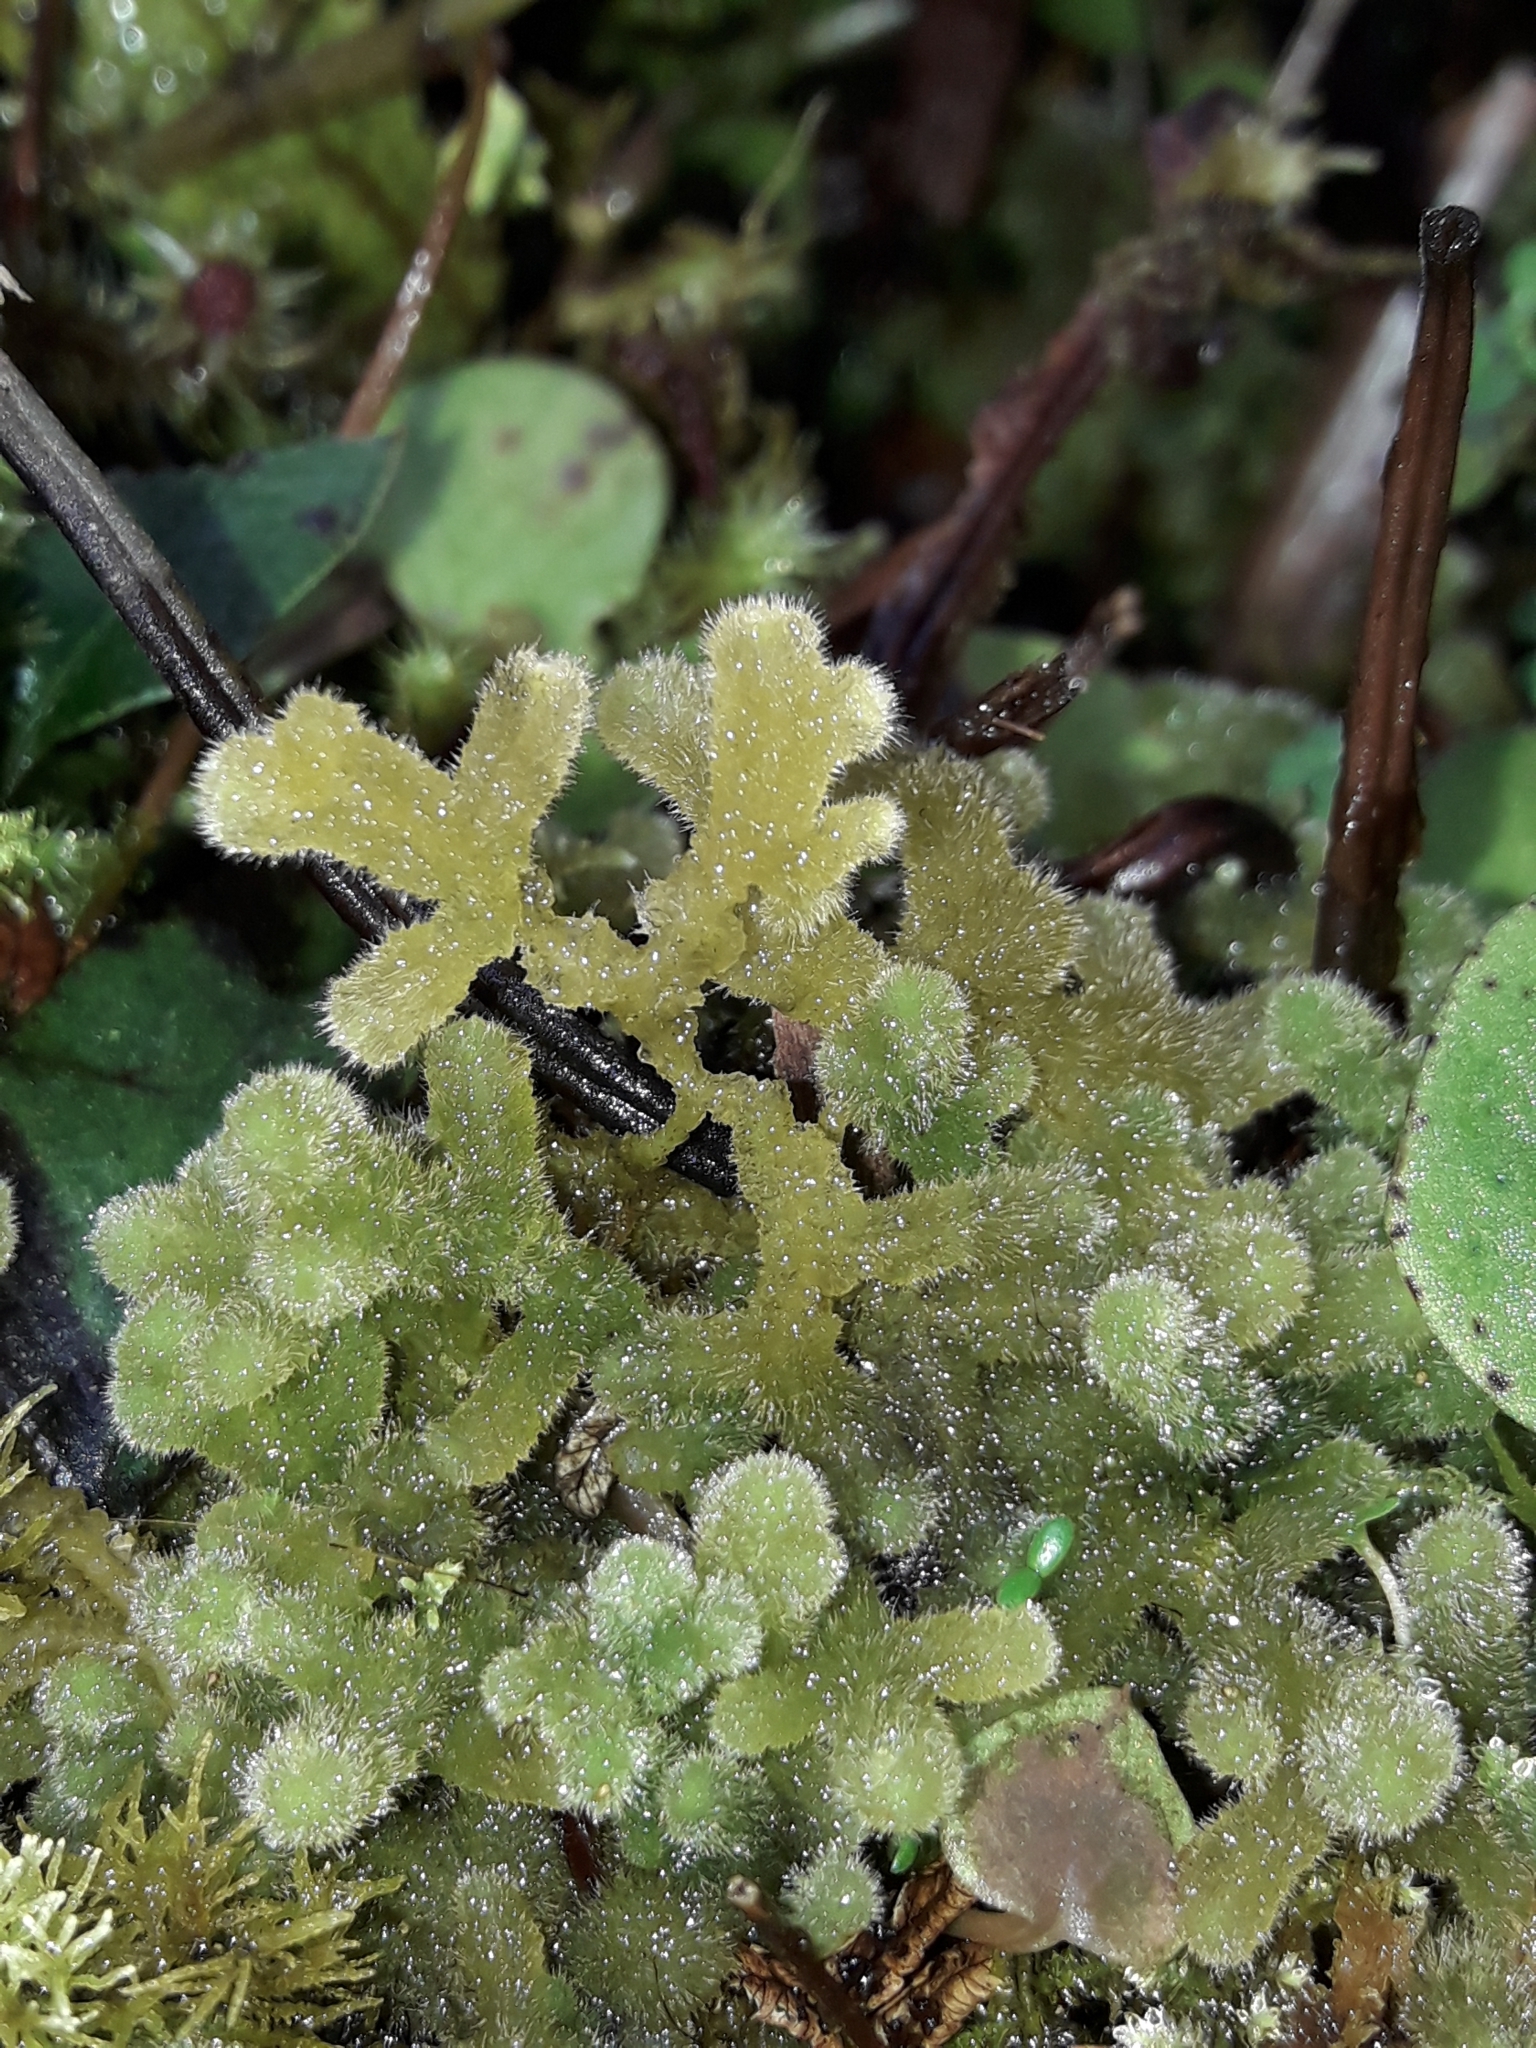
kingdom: Plantae
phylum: Marchantiophyta
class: Jungermanniopsida
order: Jungermanniales
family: Trichocoleaceae
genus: Leiomitra
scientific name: Leiomitra lanata
